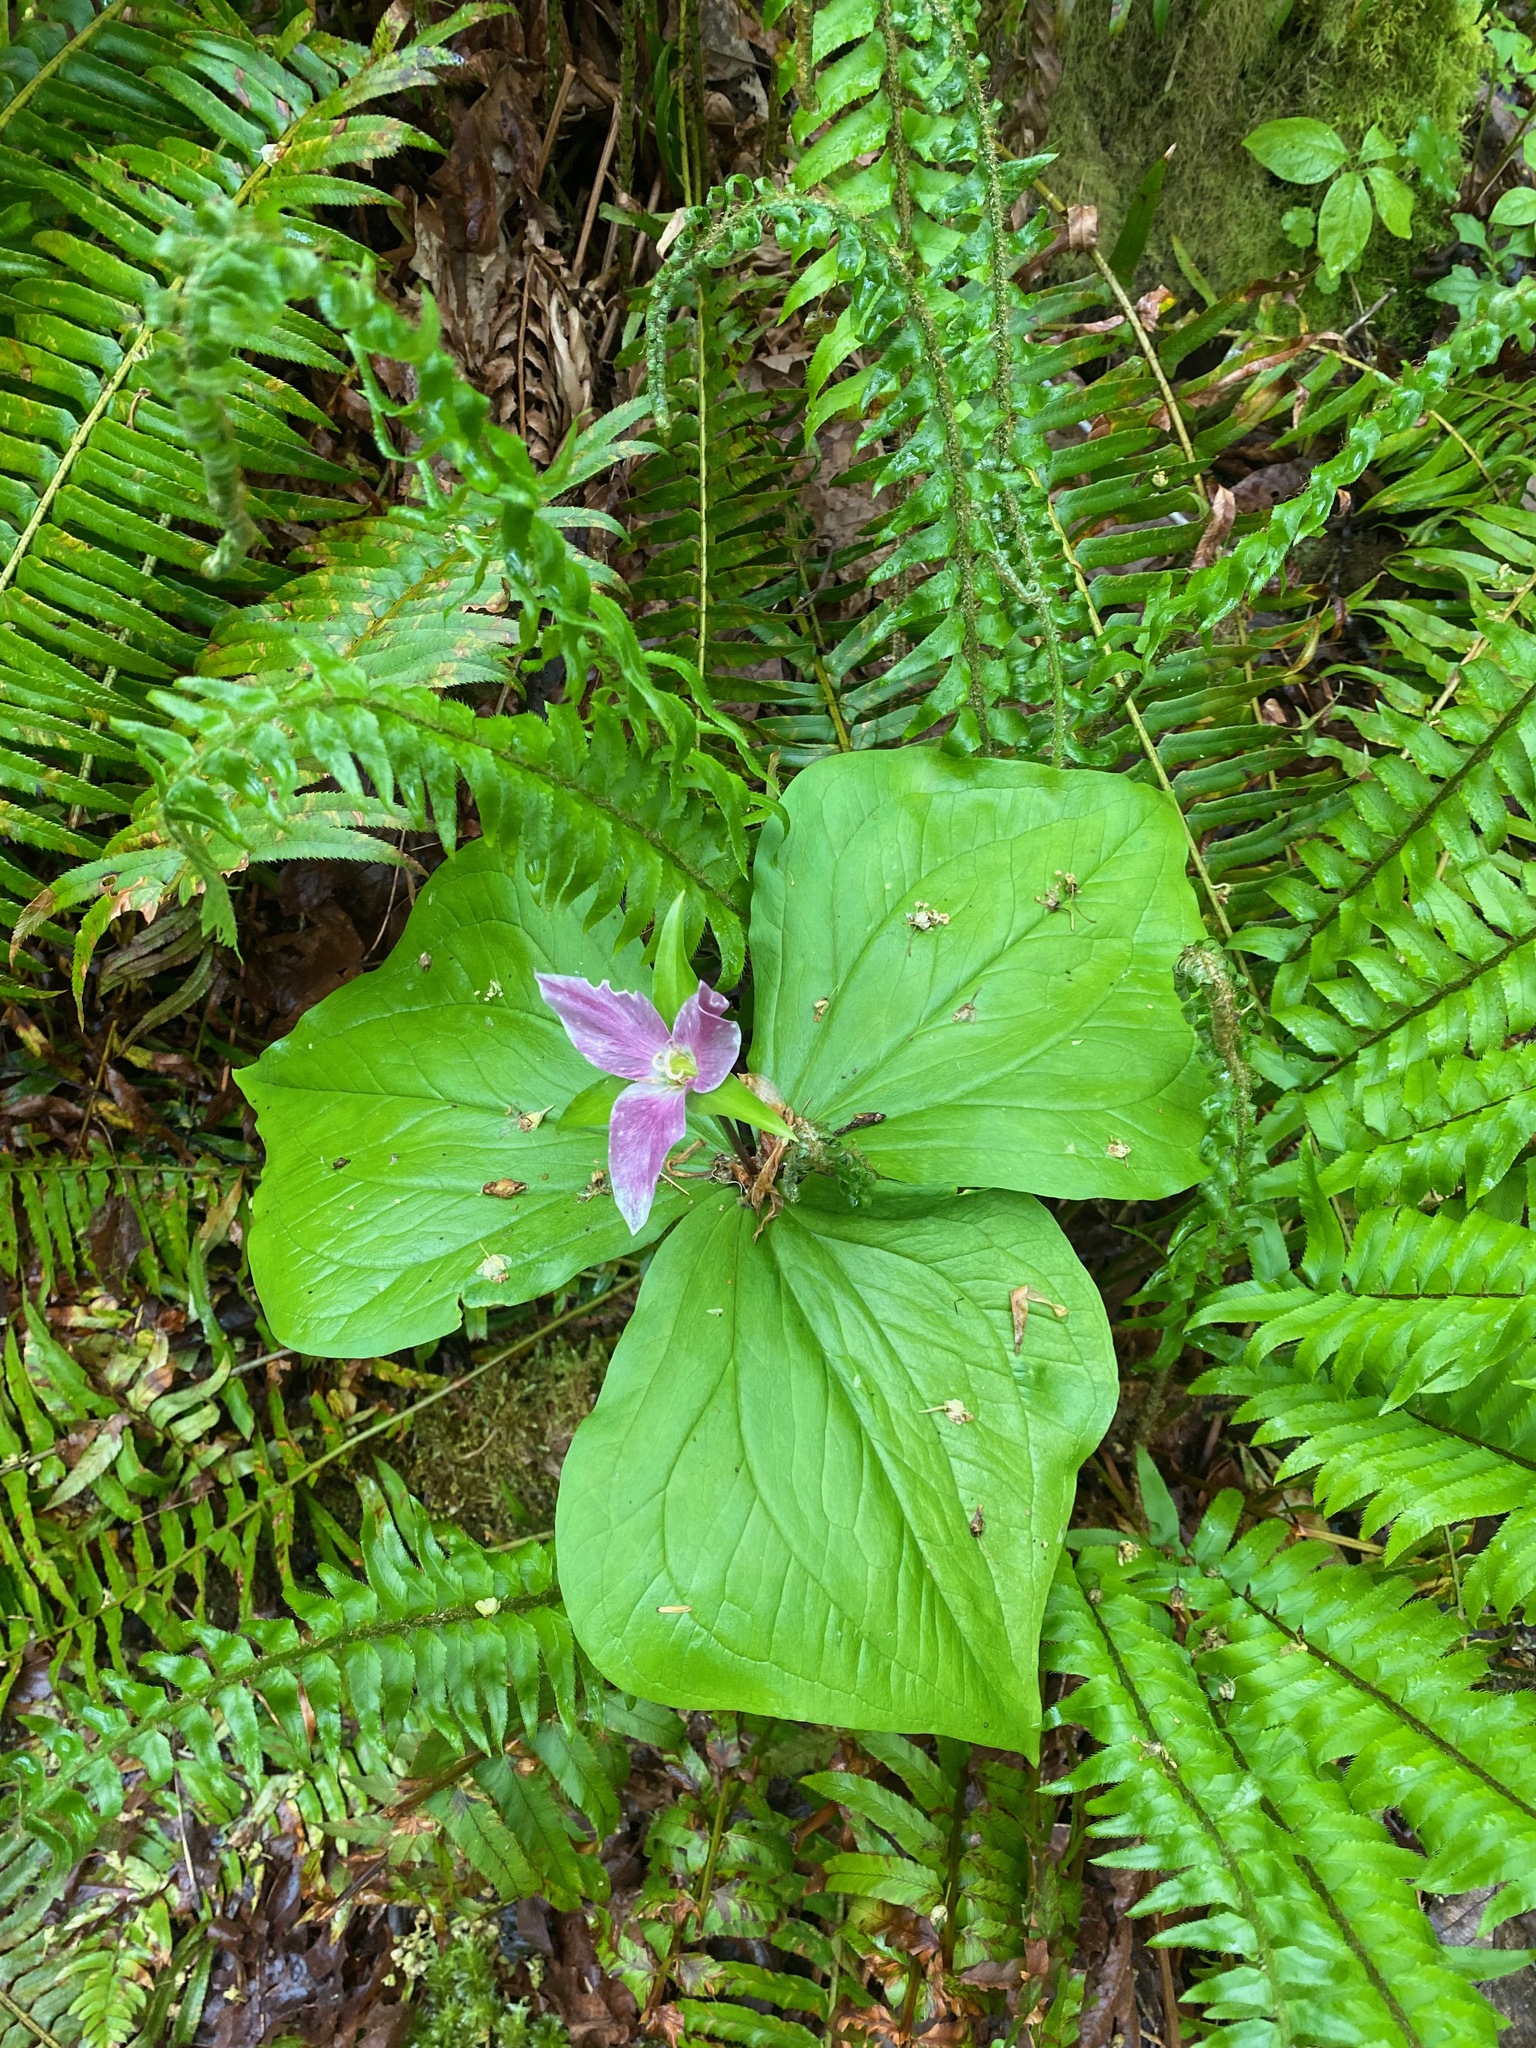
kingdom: Plantae
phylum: Tracheophyta
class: Liliopsida
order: Liliales
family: Melanthiaceae
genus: Trillium
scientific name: Trillium ovatum
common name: Pacific trillium
